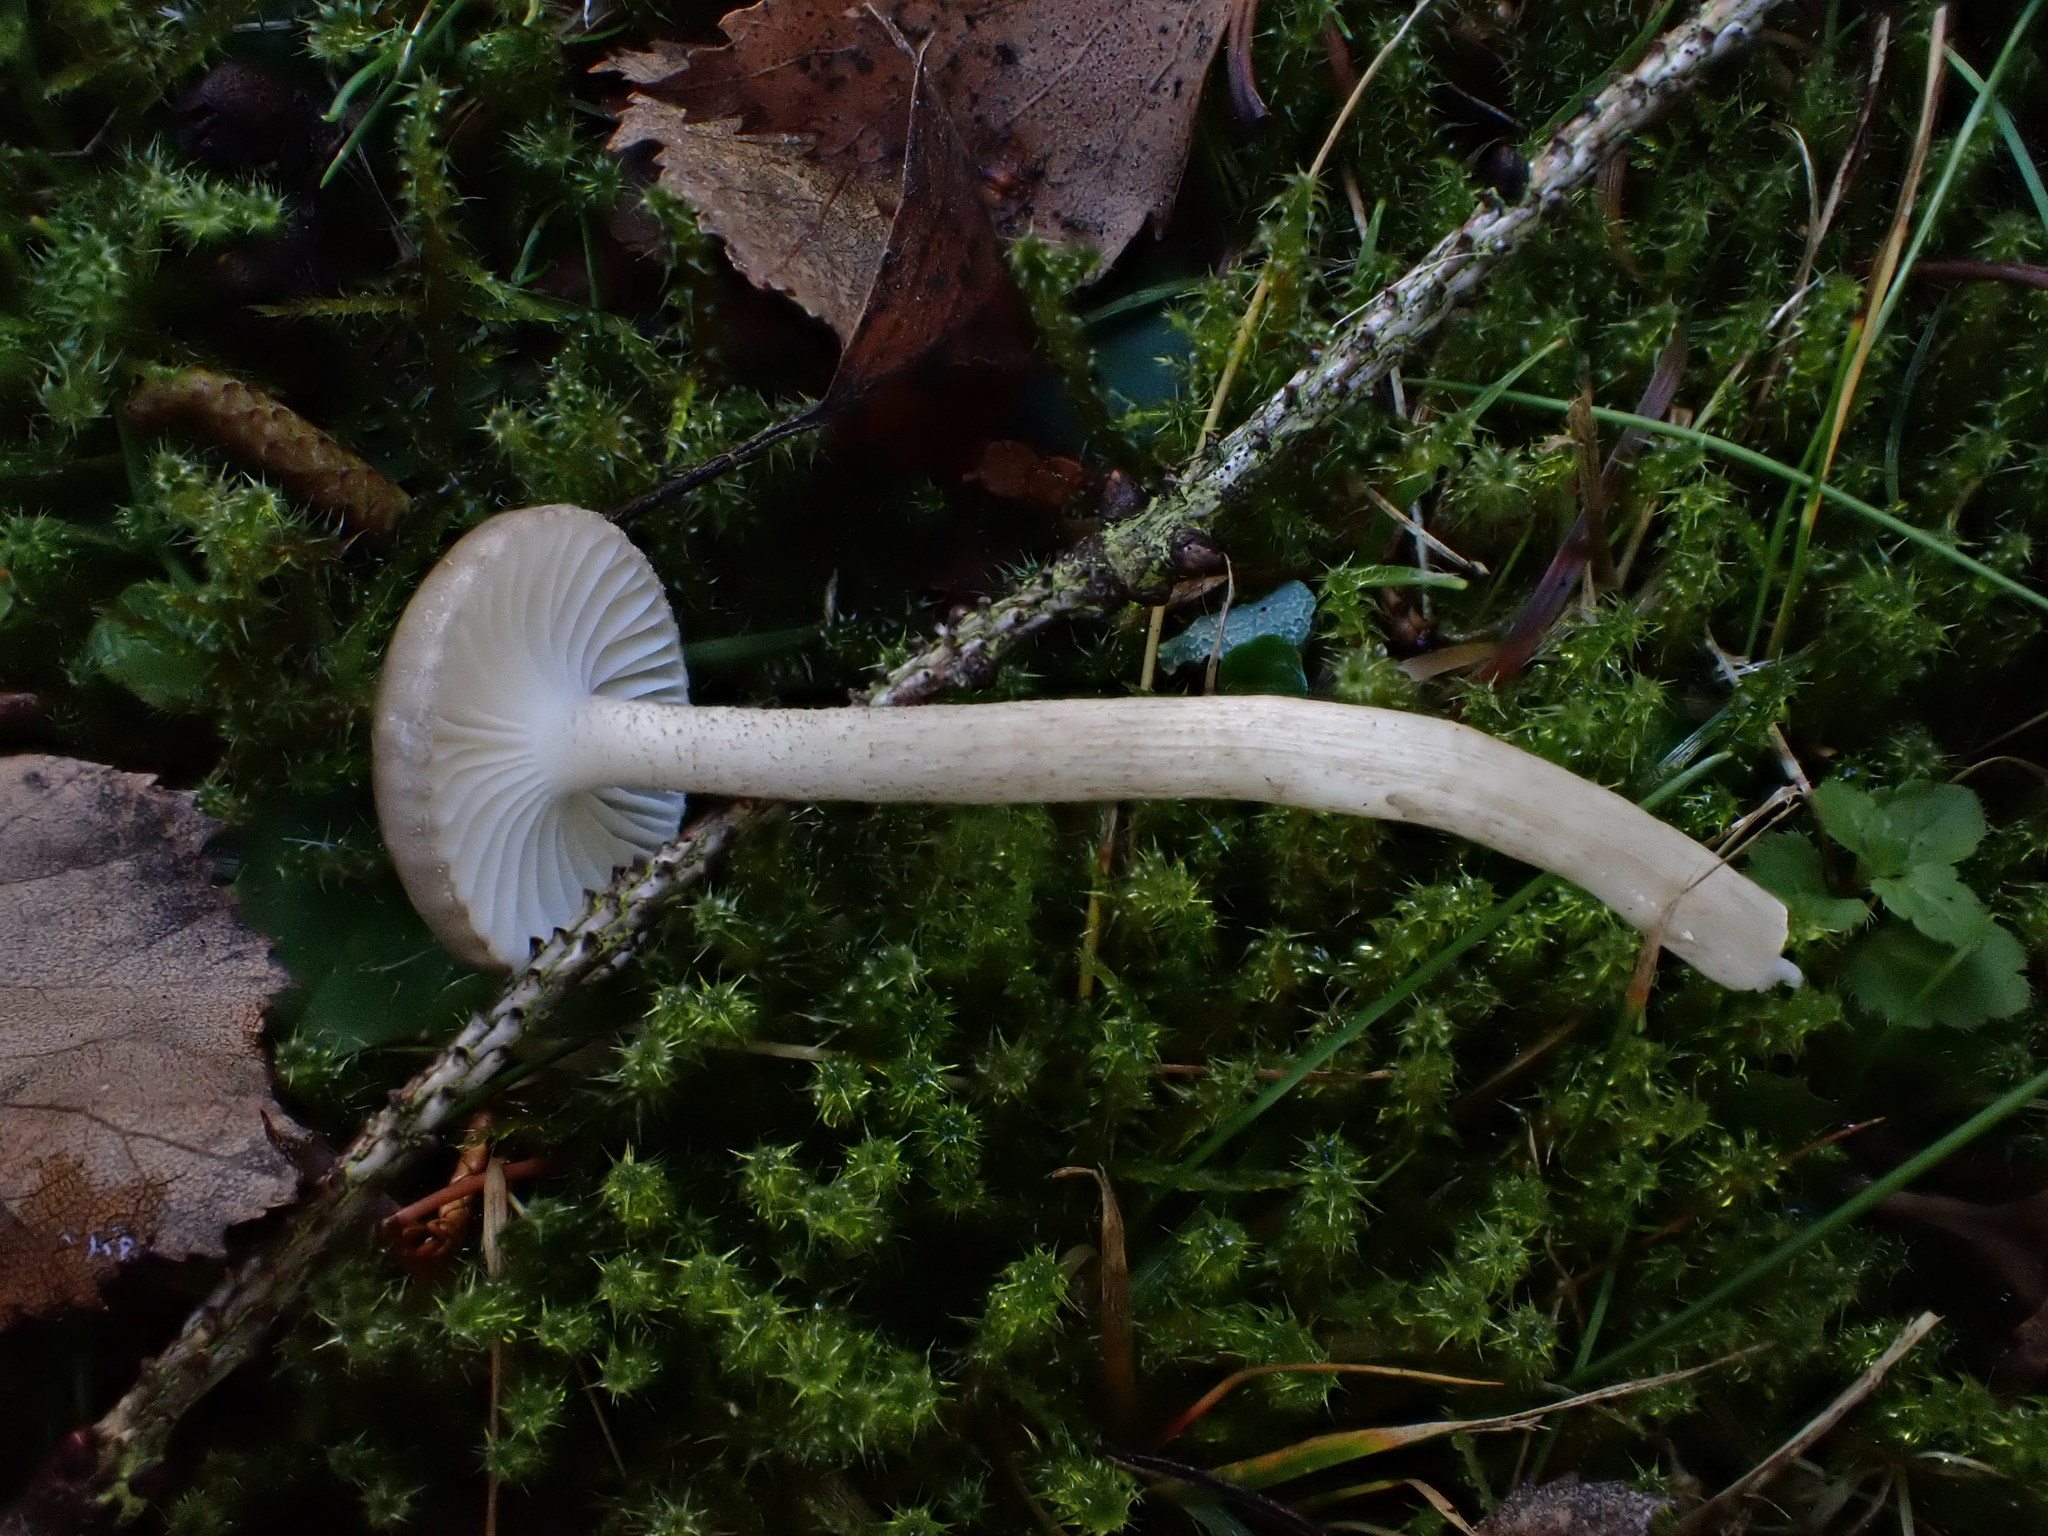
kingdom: Fungi
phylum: Basidiomycota
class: Agaricomycetes
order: Agaricales
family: Hygrophoraceae
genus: Hygrophorus
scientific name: Hygrophorus pustulatus
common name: Blistered woodwax
